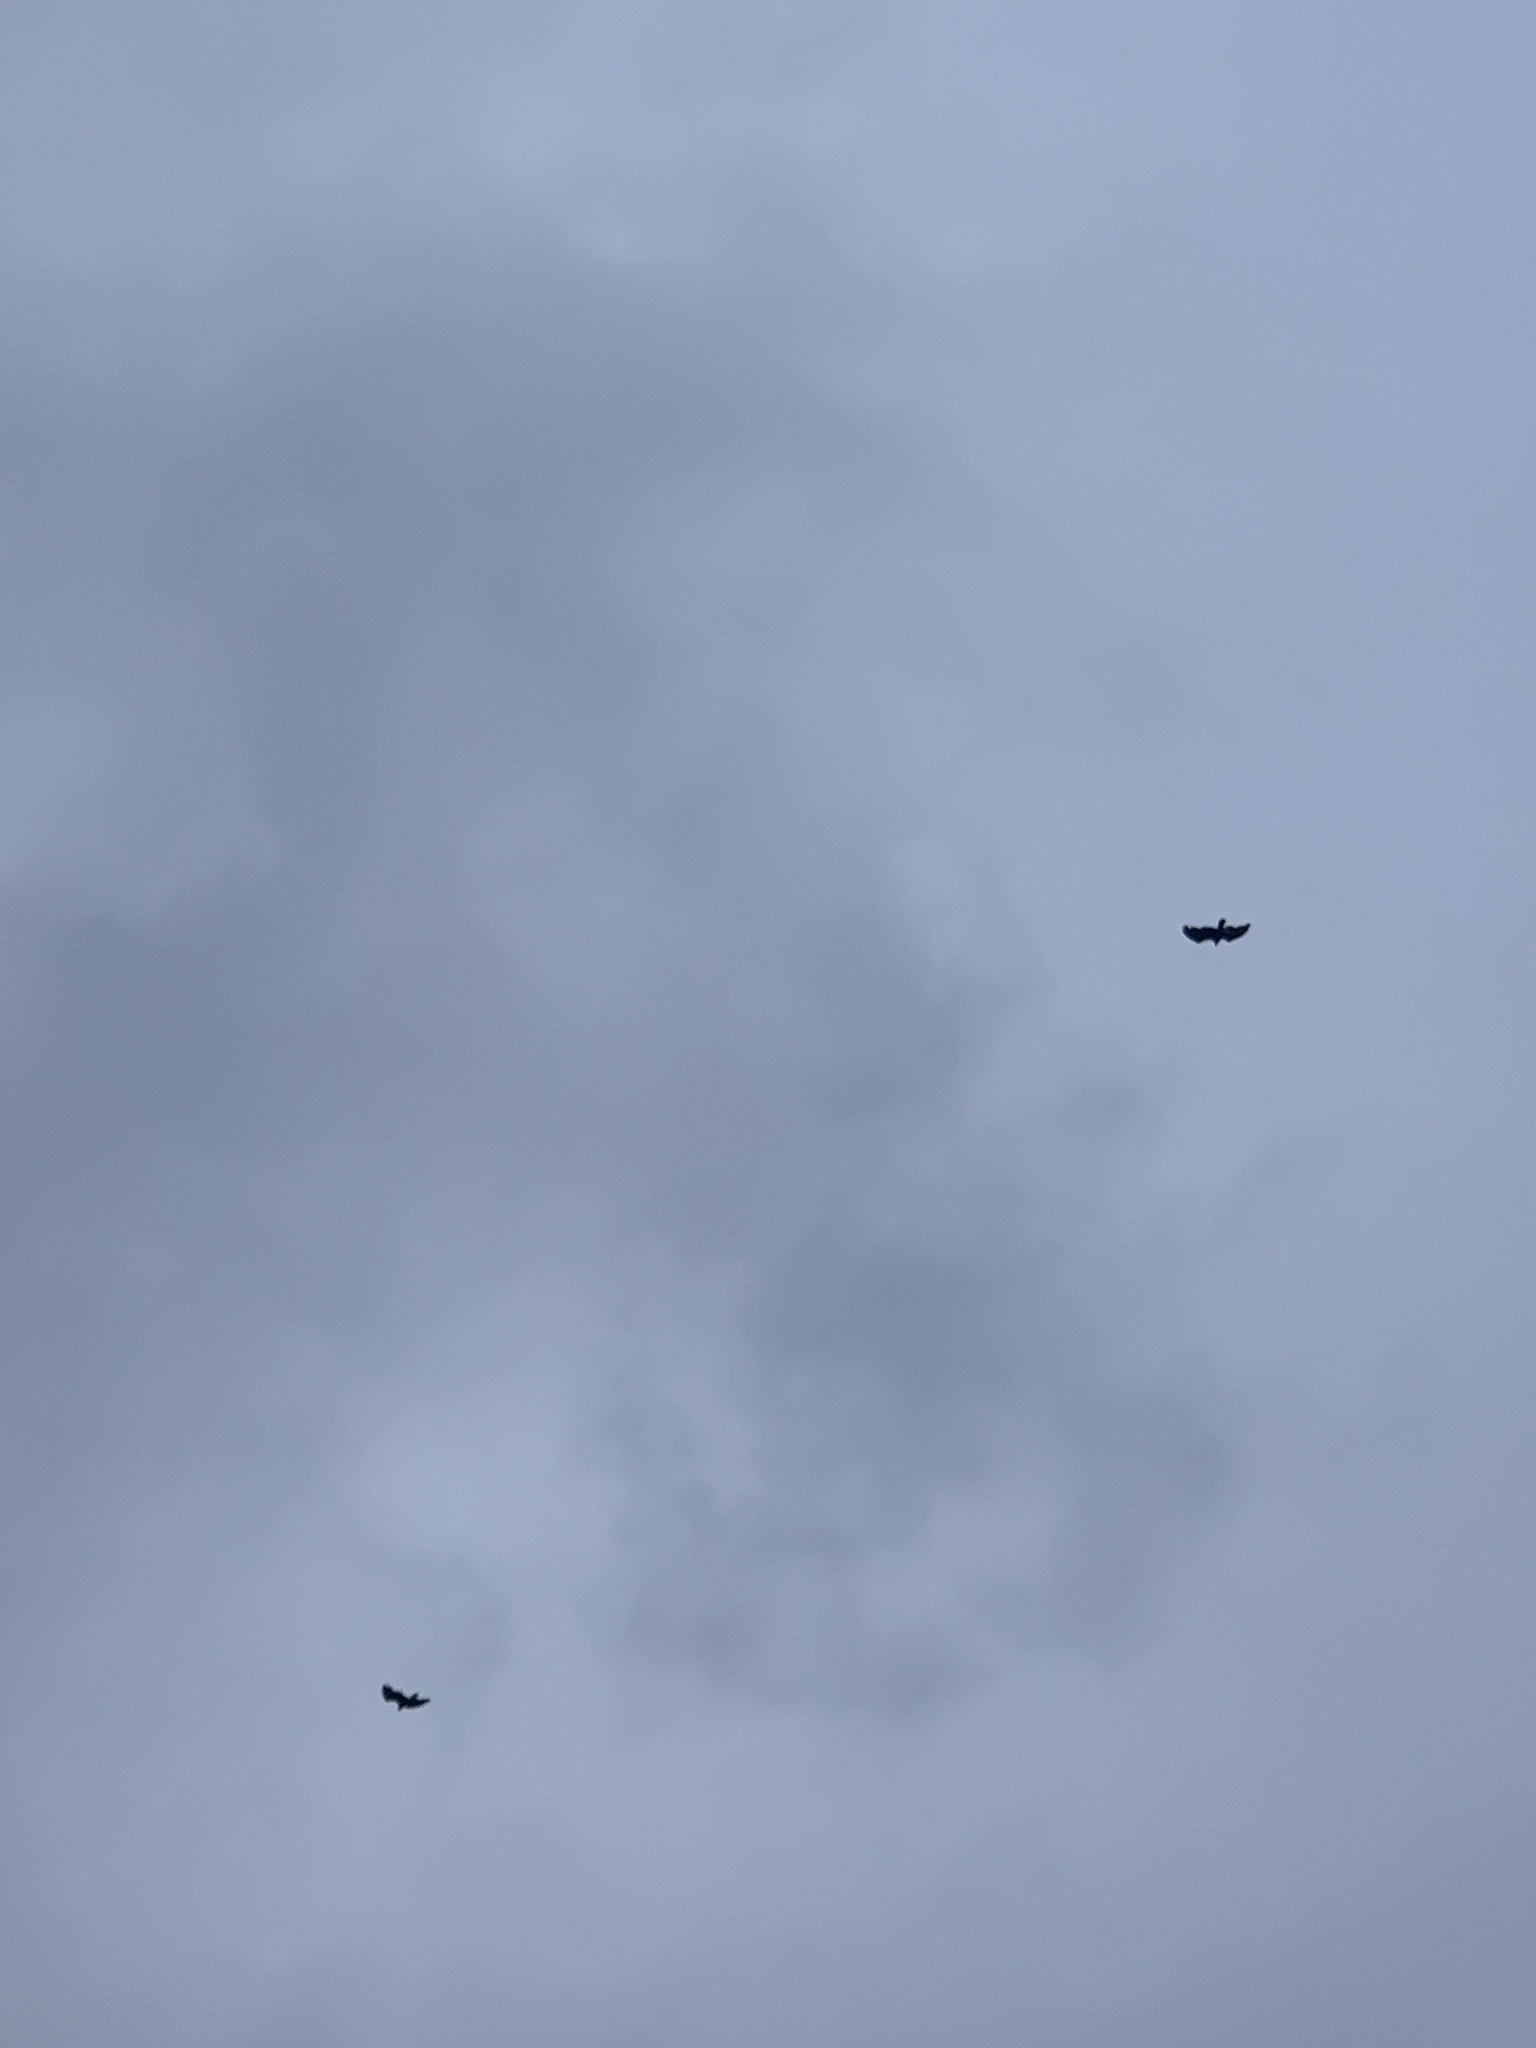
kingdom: Animalia
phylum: Chordata
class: Aves
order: Accipitriformes
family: Cathartidae
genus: Cathartes
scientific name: Cathartes aura
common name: Turkey vulture
